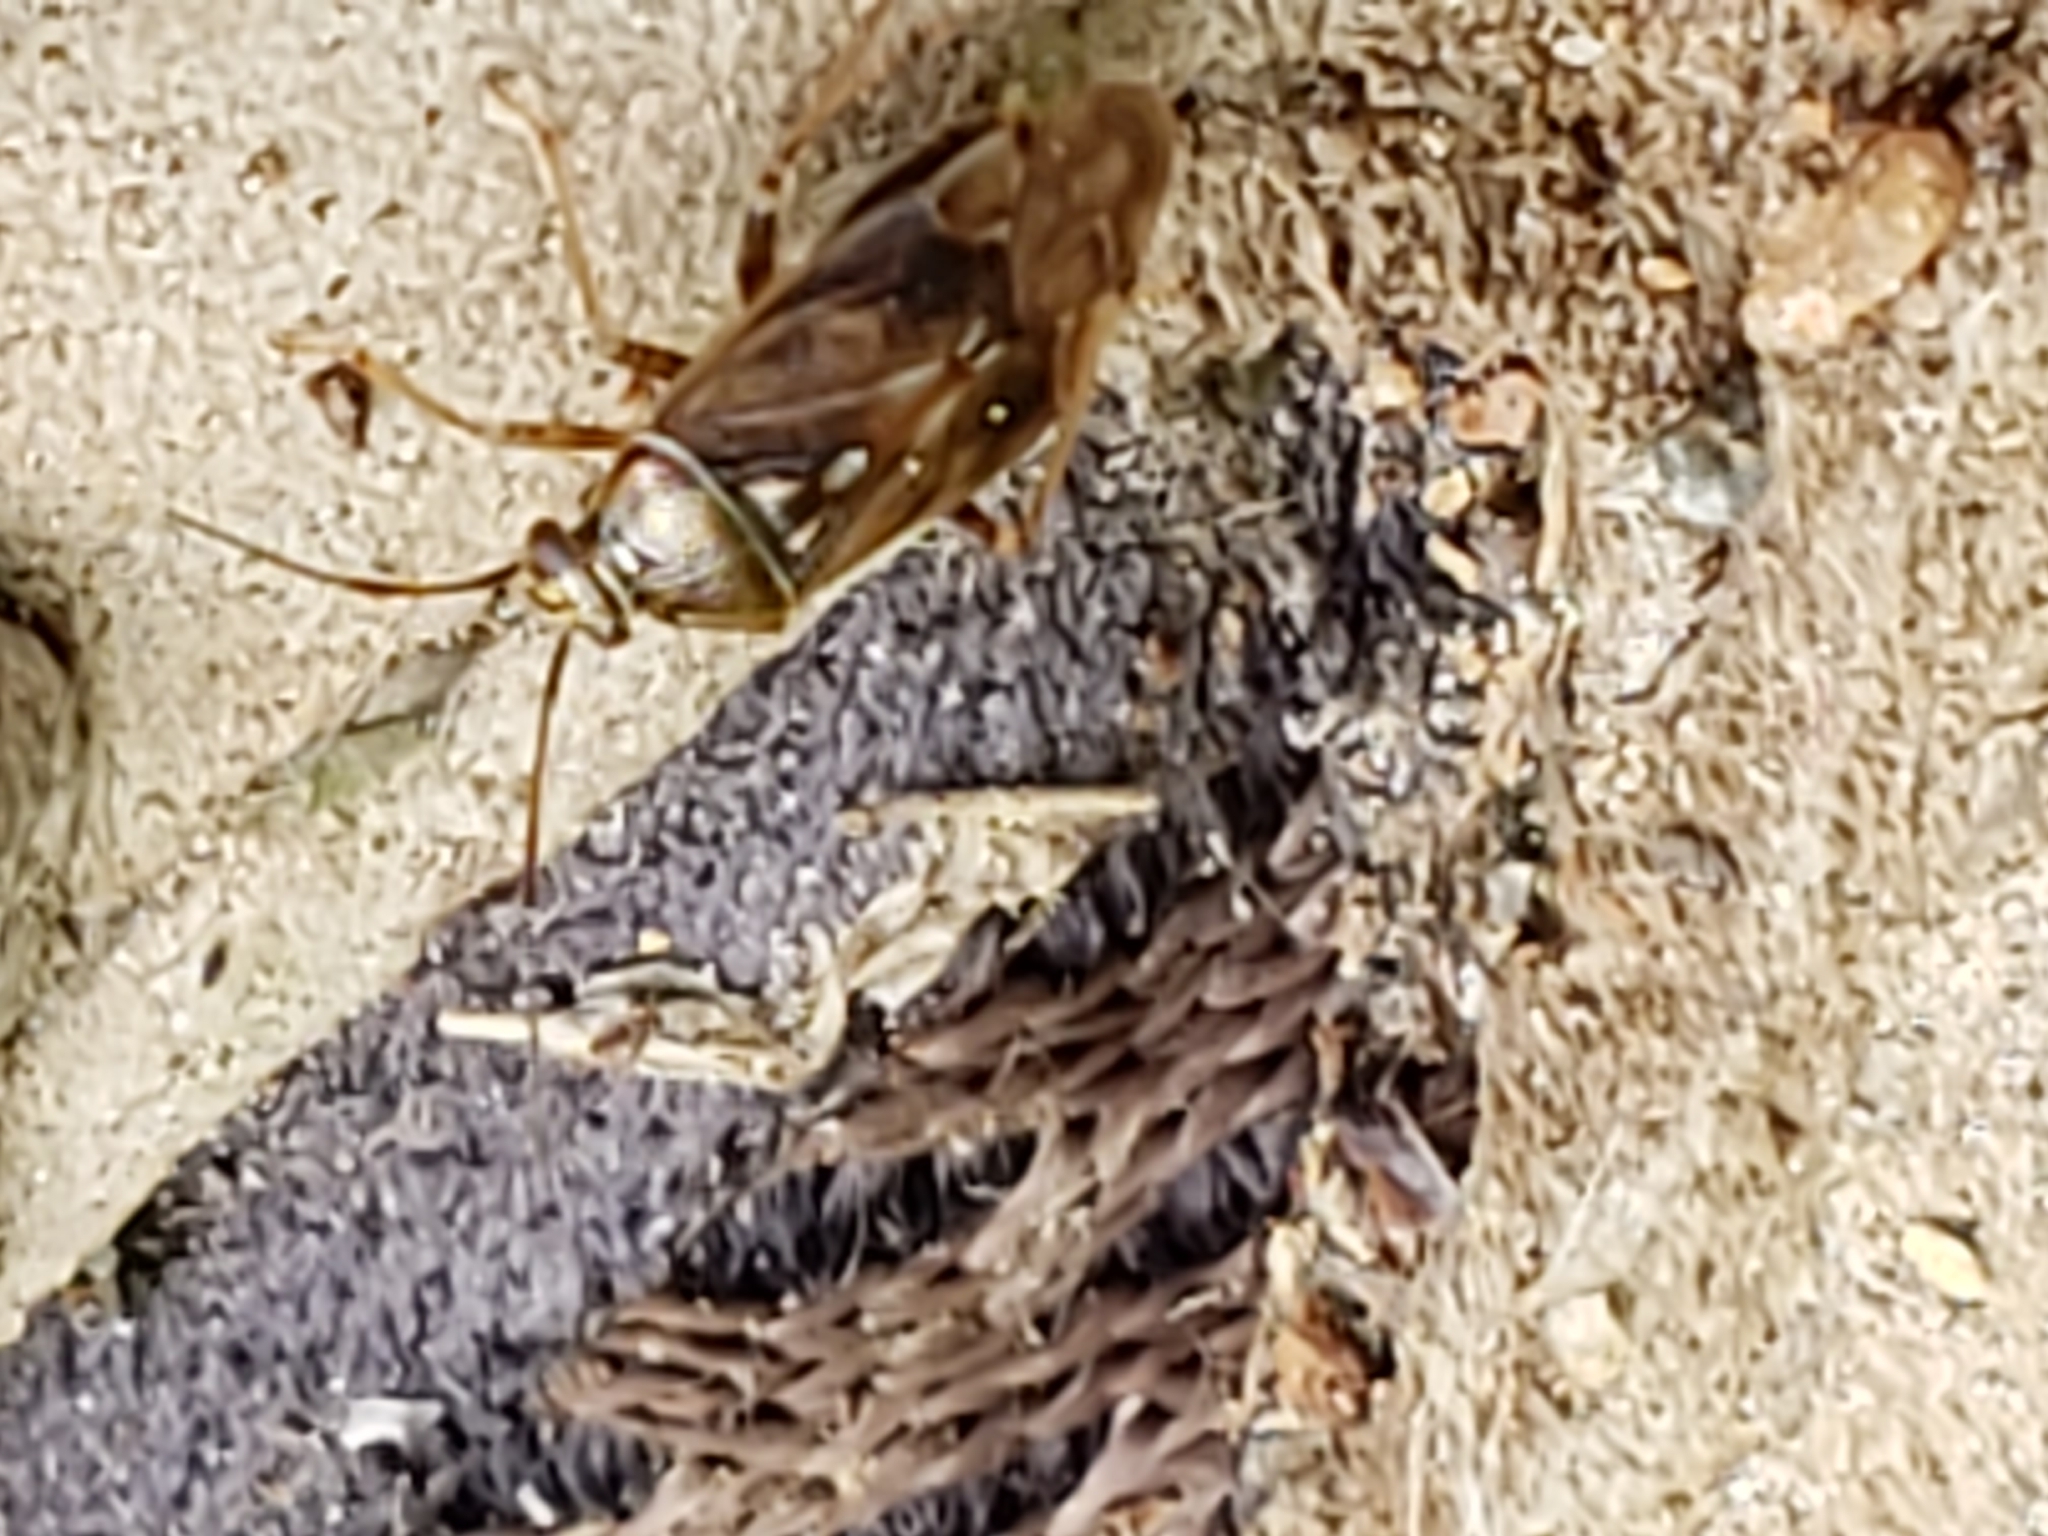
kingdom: Animalia
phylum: Arthropoda
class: Insecta
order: Hemiptera
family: Miridae
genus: Lygus
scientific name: Lygus lineolaris
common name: North american tarnished plant bug
